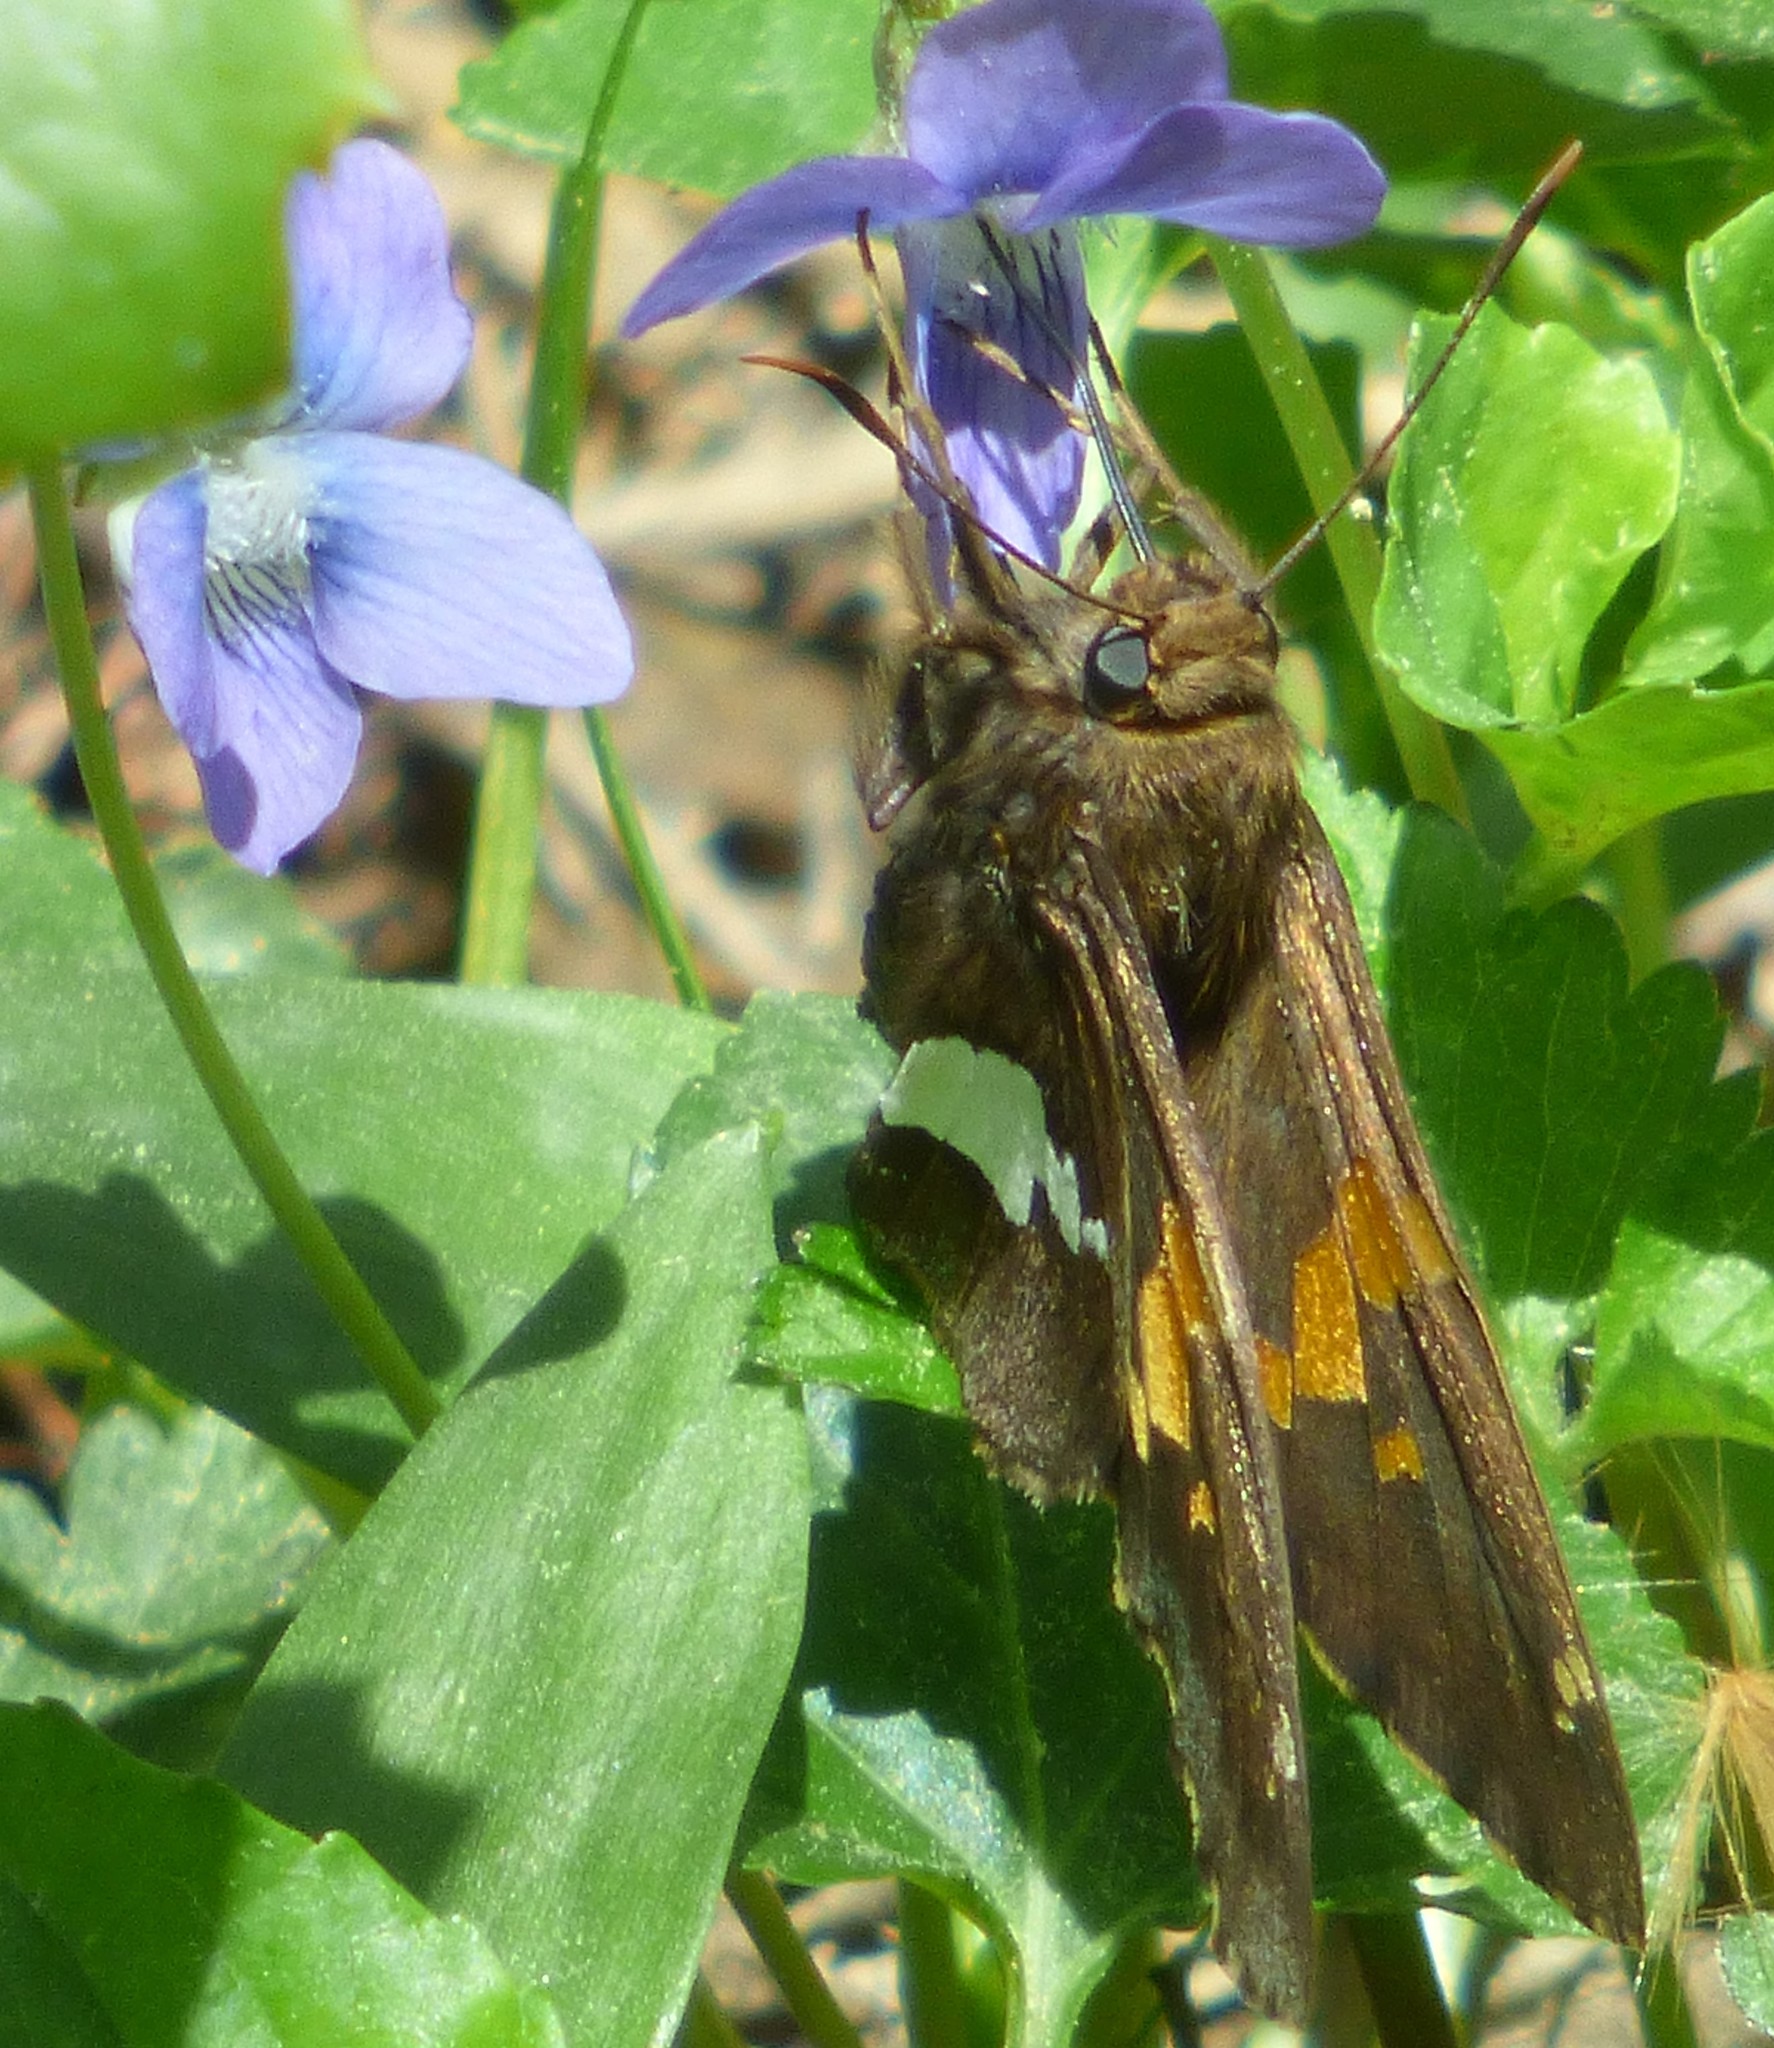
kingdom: Animalia
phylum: Arthropoda
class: Insecta
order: Lepidoptera
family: Hesperiidae
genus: Epargyreus
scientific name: Epargyreus clarus
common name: Silver-spotted skipper
